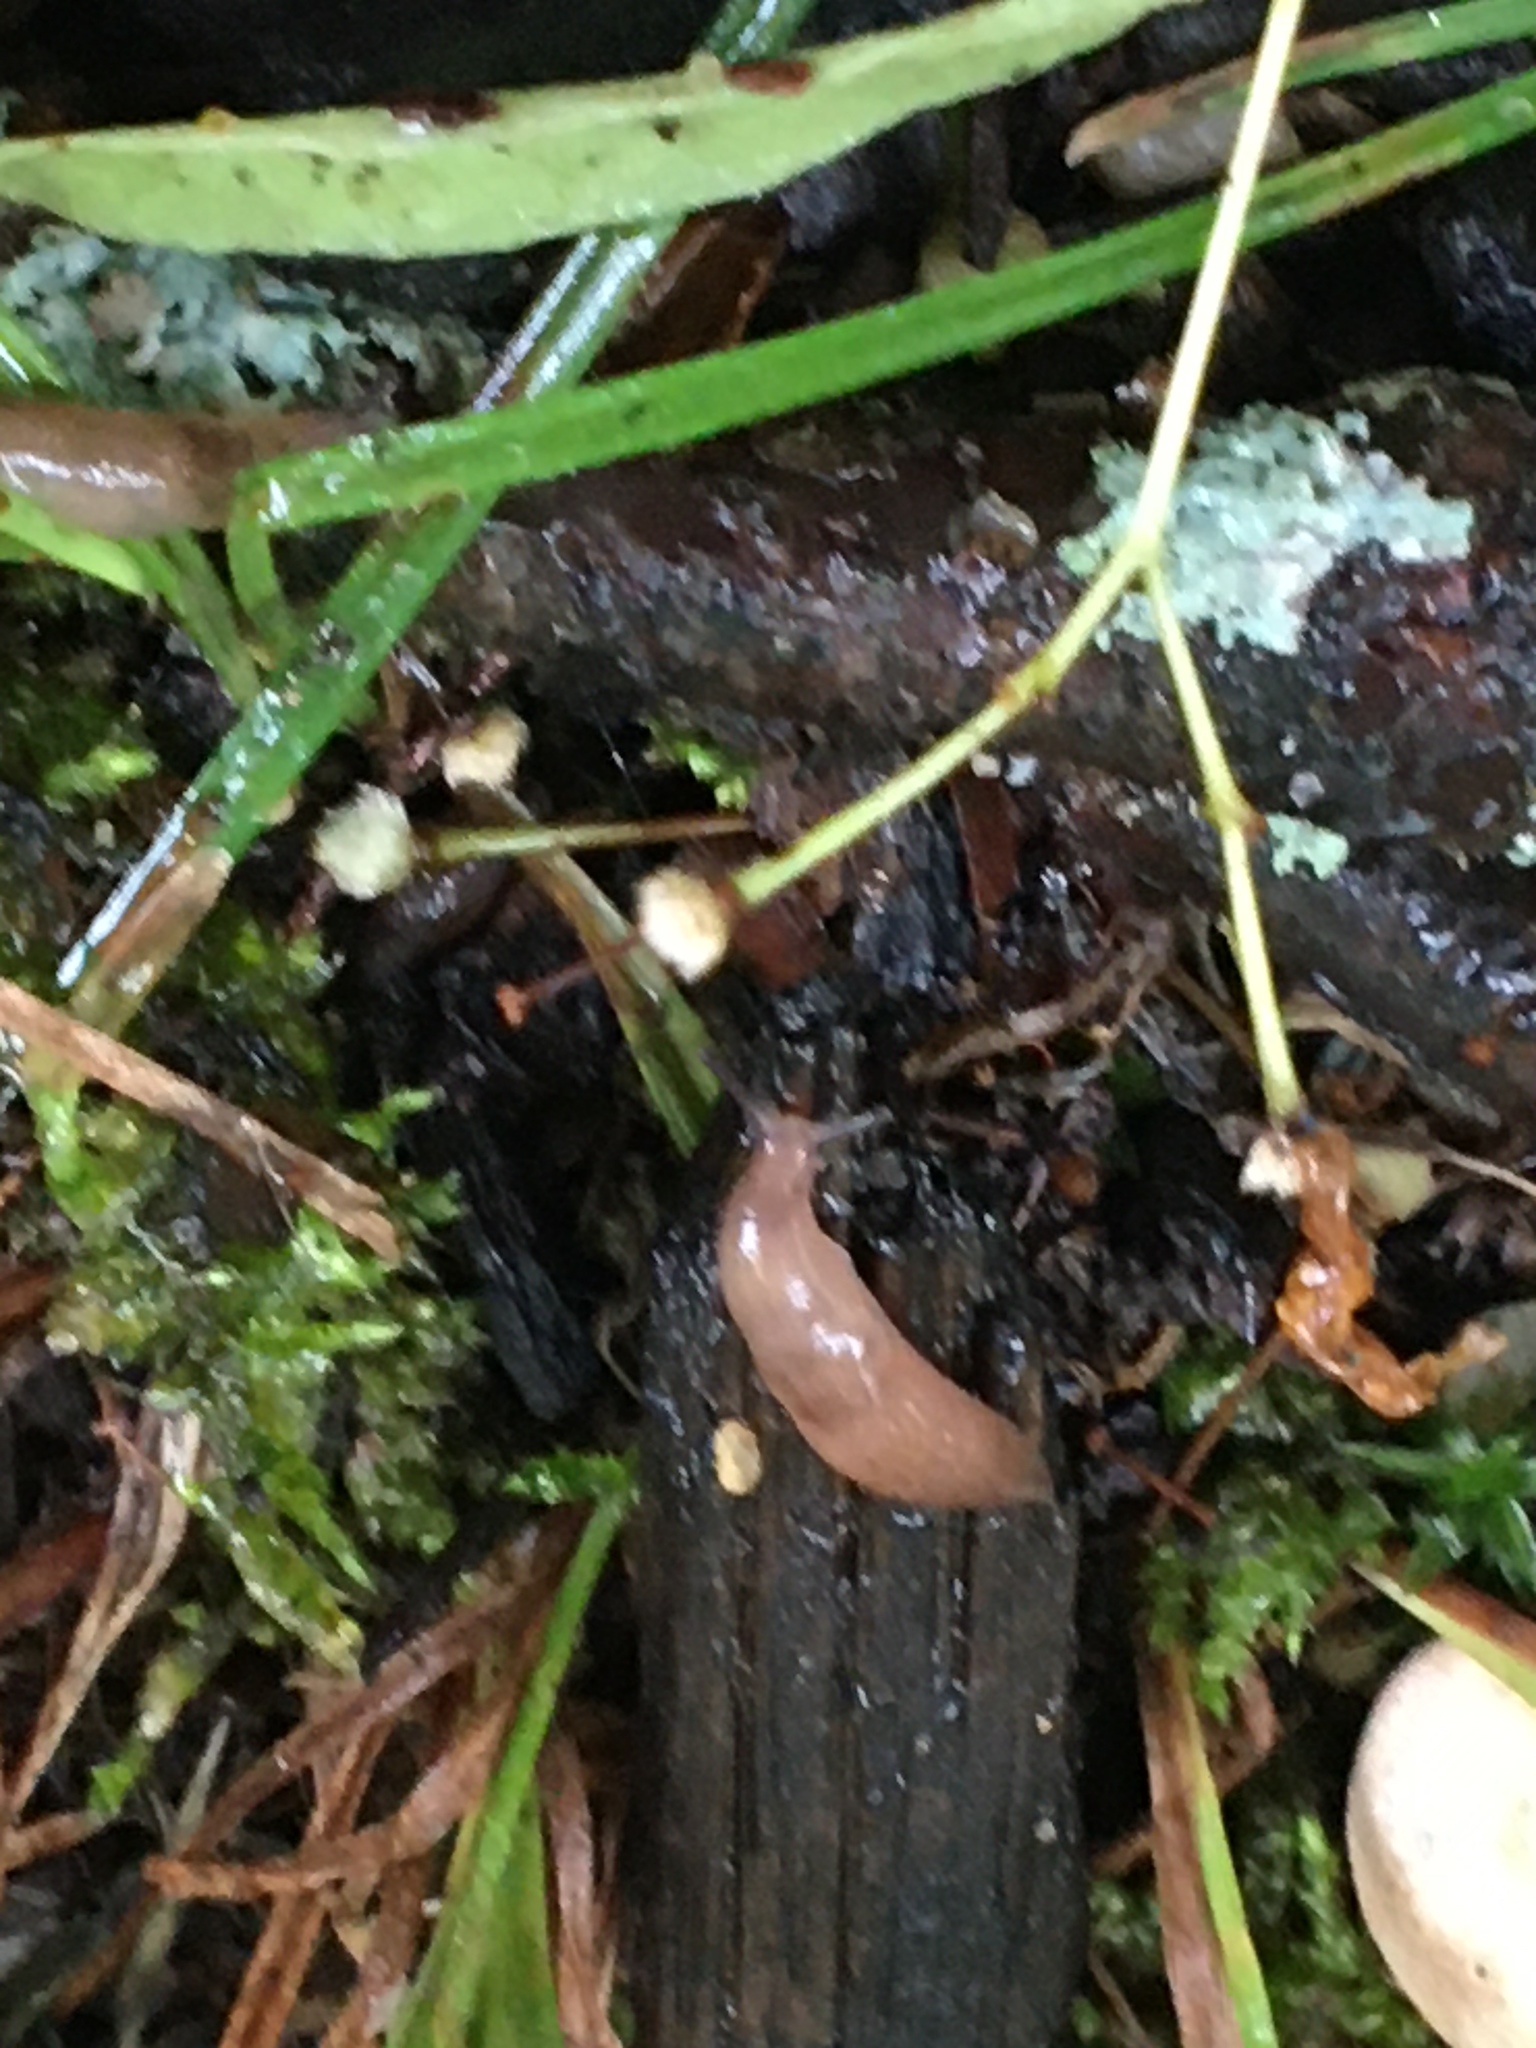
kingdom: Animalia
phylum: Mollusca
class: Gastropoda
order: Stylommatophora
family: Agriolimacidae
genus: Deroceras
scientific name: Deroceras reticulatum
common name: Gray field slug
